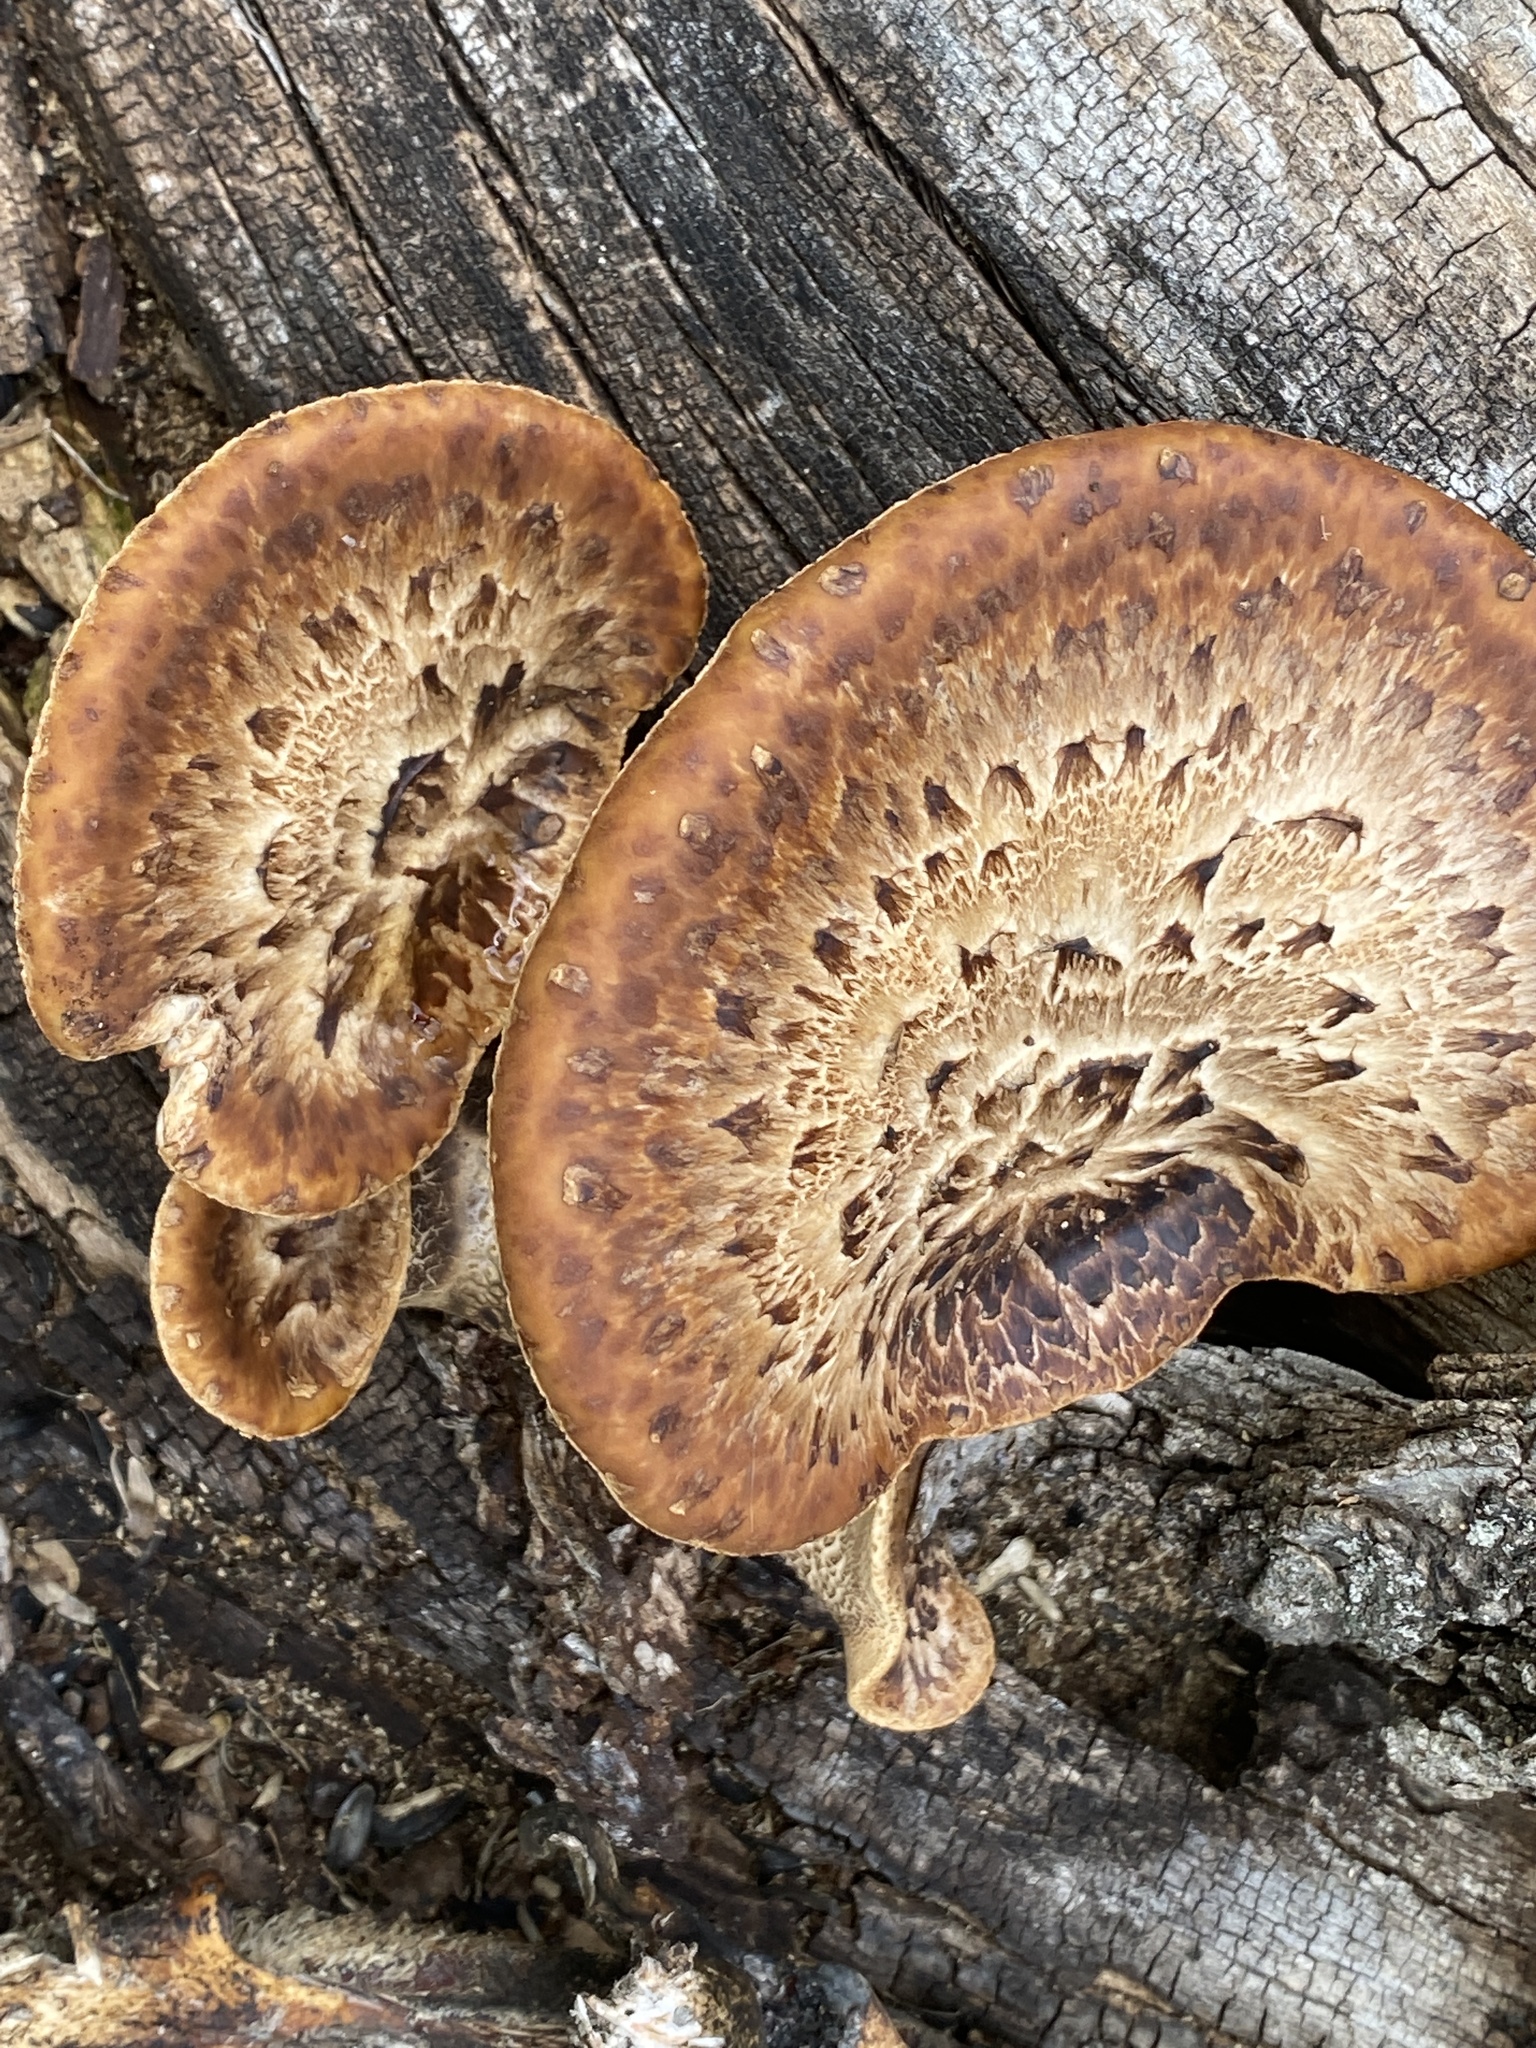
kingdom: Fungi
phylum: Basidiomycota
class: Agaricomycetes
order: Polyporales
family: Polyporaceae
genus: Cerioporus
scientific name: Cerioporus squamosus
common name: Dryad's saddle
